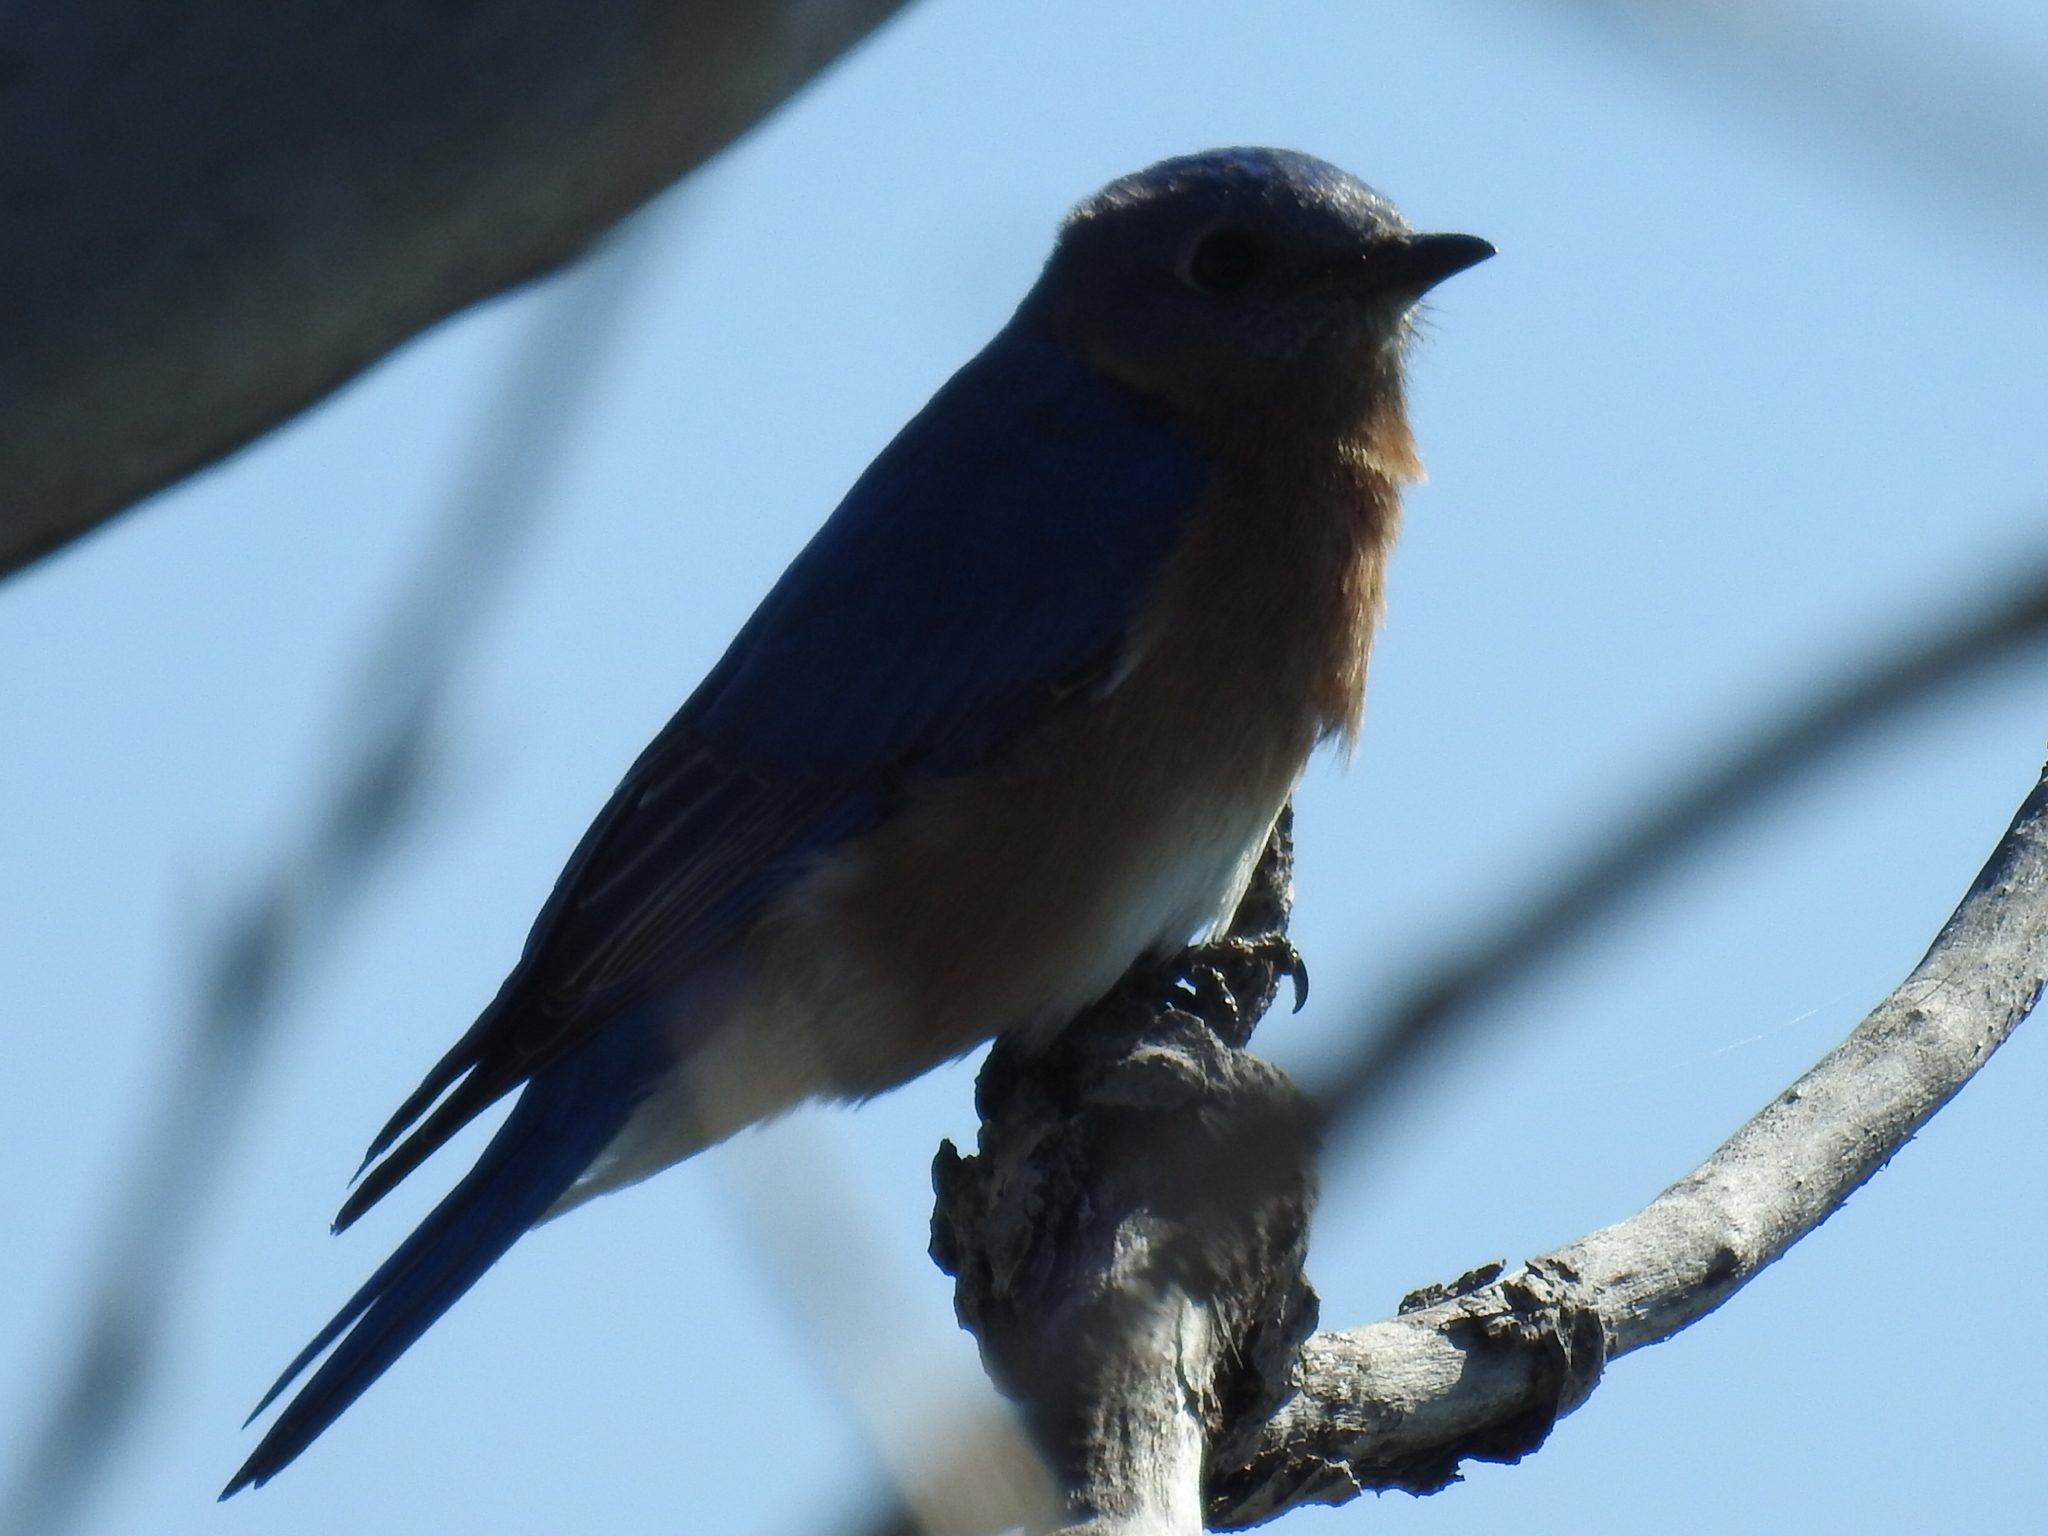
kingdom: Animalia
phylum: Chordata
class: Aves
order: Passeriformes
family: Turdidae
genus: Sialia
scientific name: Sialia sialis
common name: Eastern bluebird
